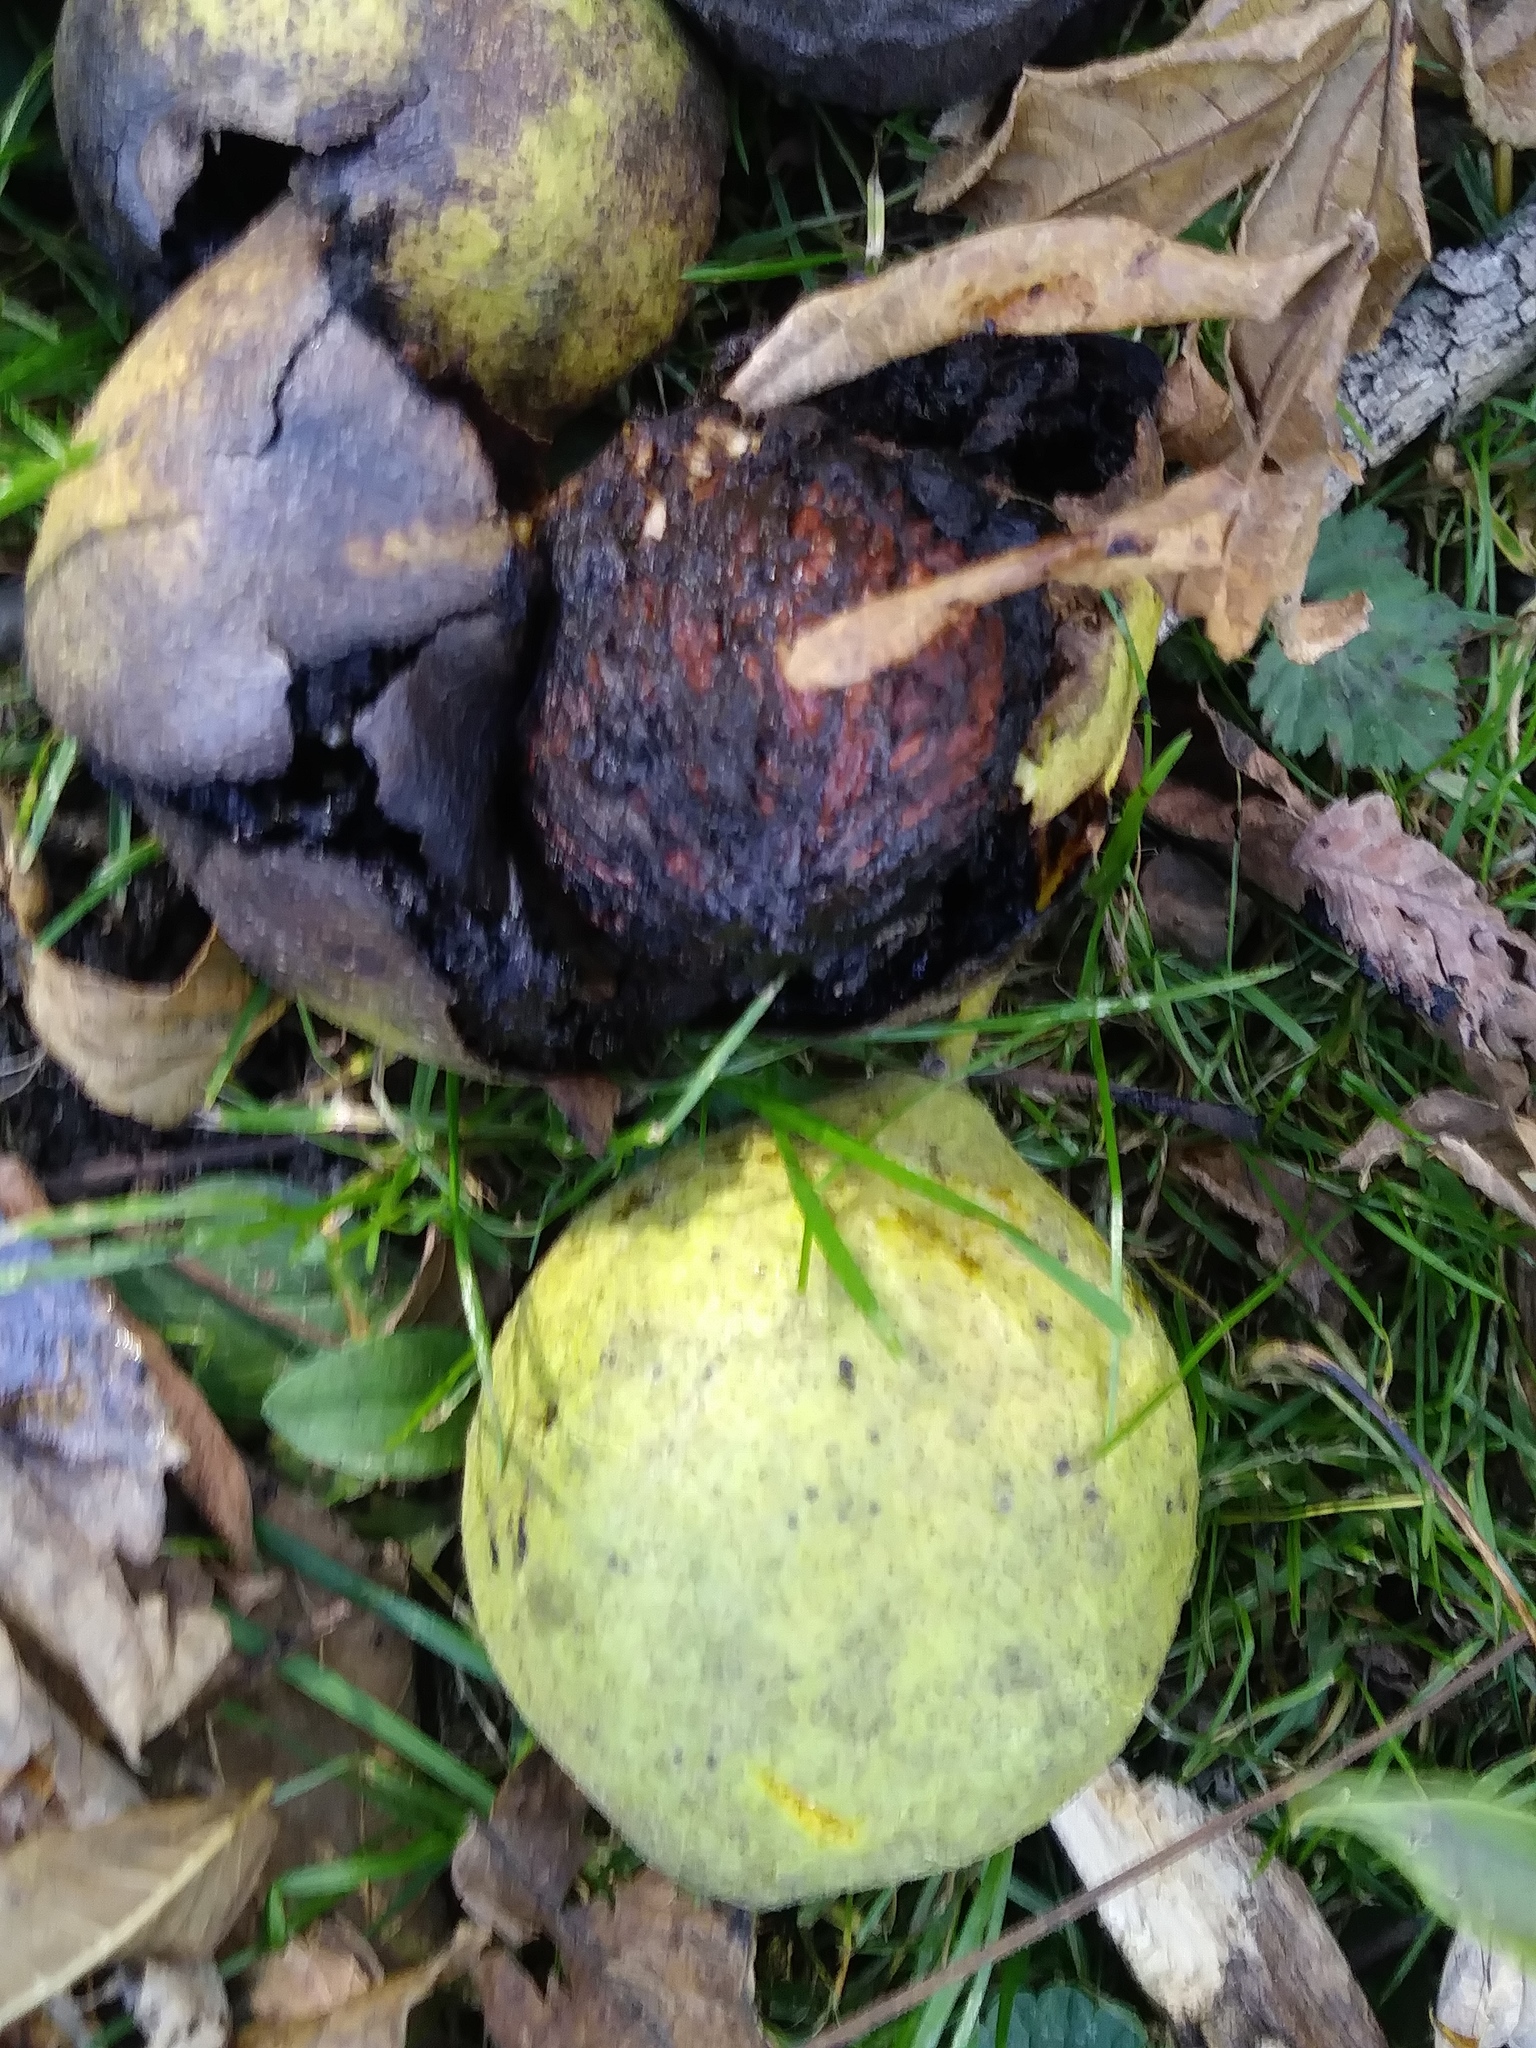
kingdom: Plantae
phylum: Tracheophyta
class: Magnoliopsida
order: Fagales
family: Juglandaceae
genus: Juglans
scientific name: Juglans nigra
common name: Black walnut
